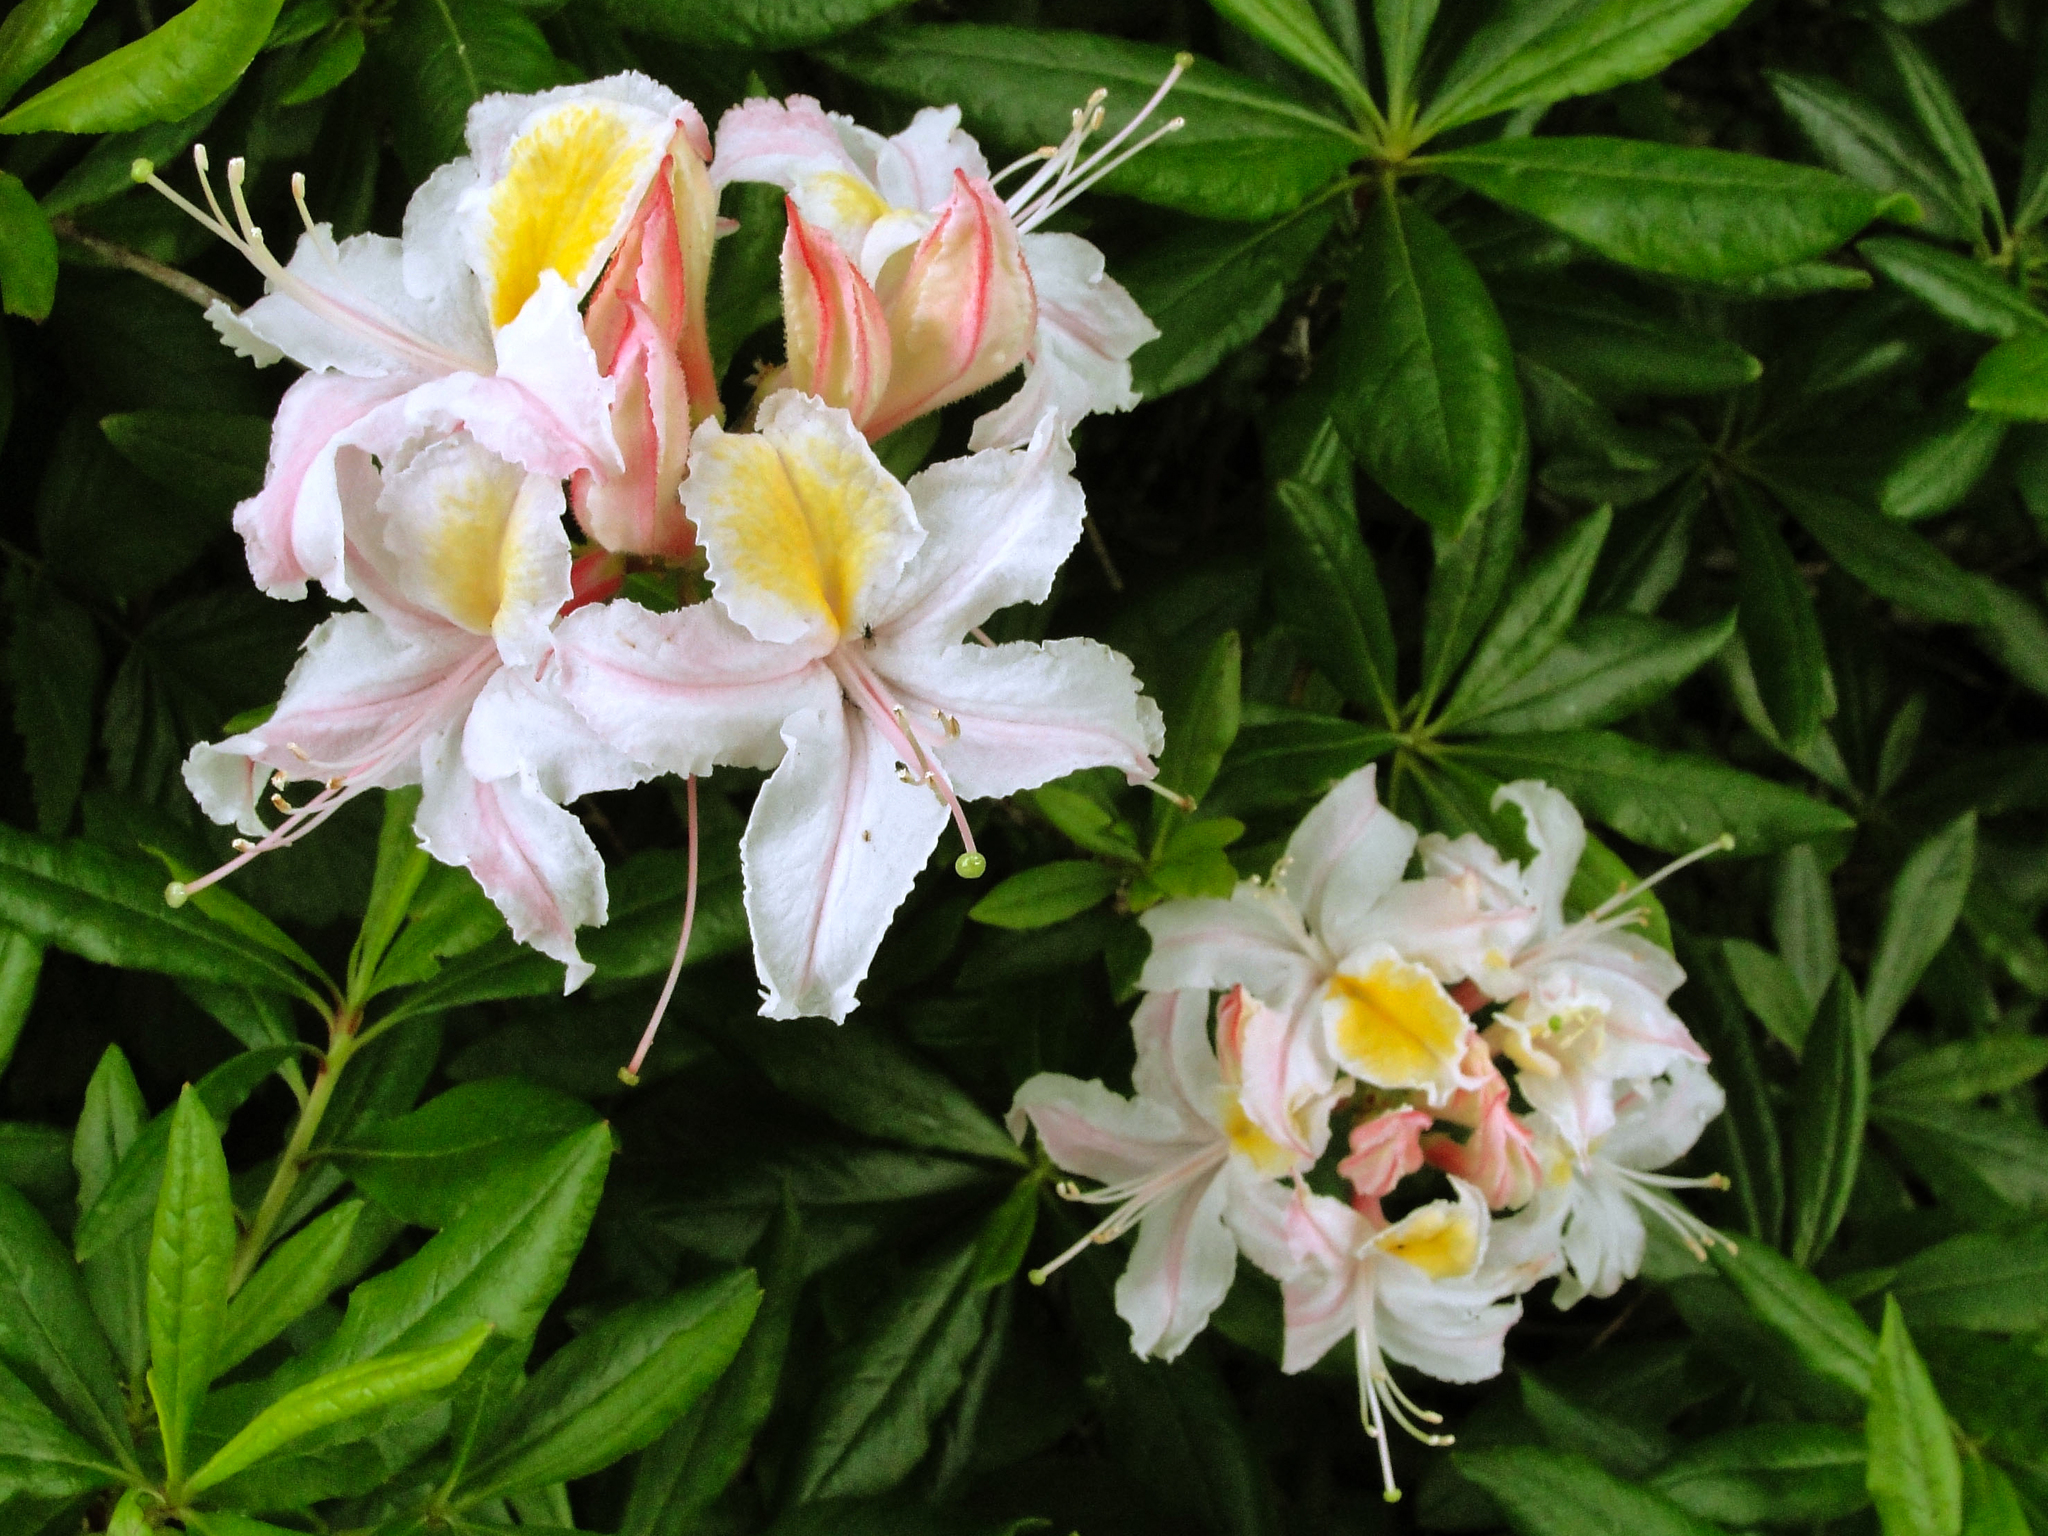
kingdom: Plantae
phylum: Tracheophyta
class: Magnoliopsida
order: Ericales
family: Ericaceae
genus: Rhododendron
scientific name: Rhododendron occidentale
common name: Western azalea
